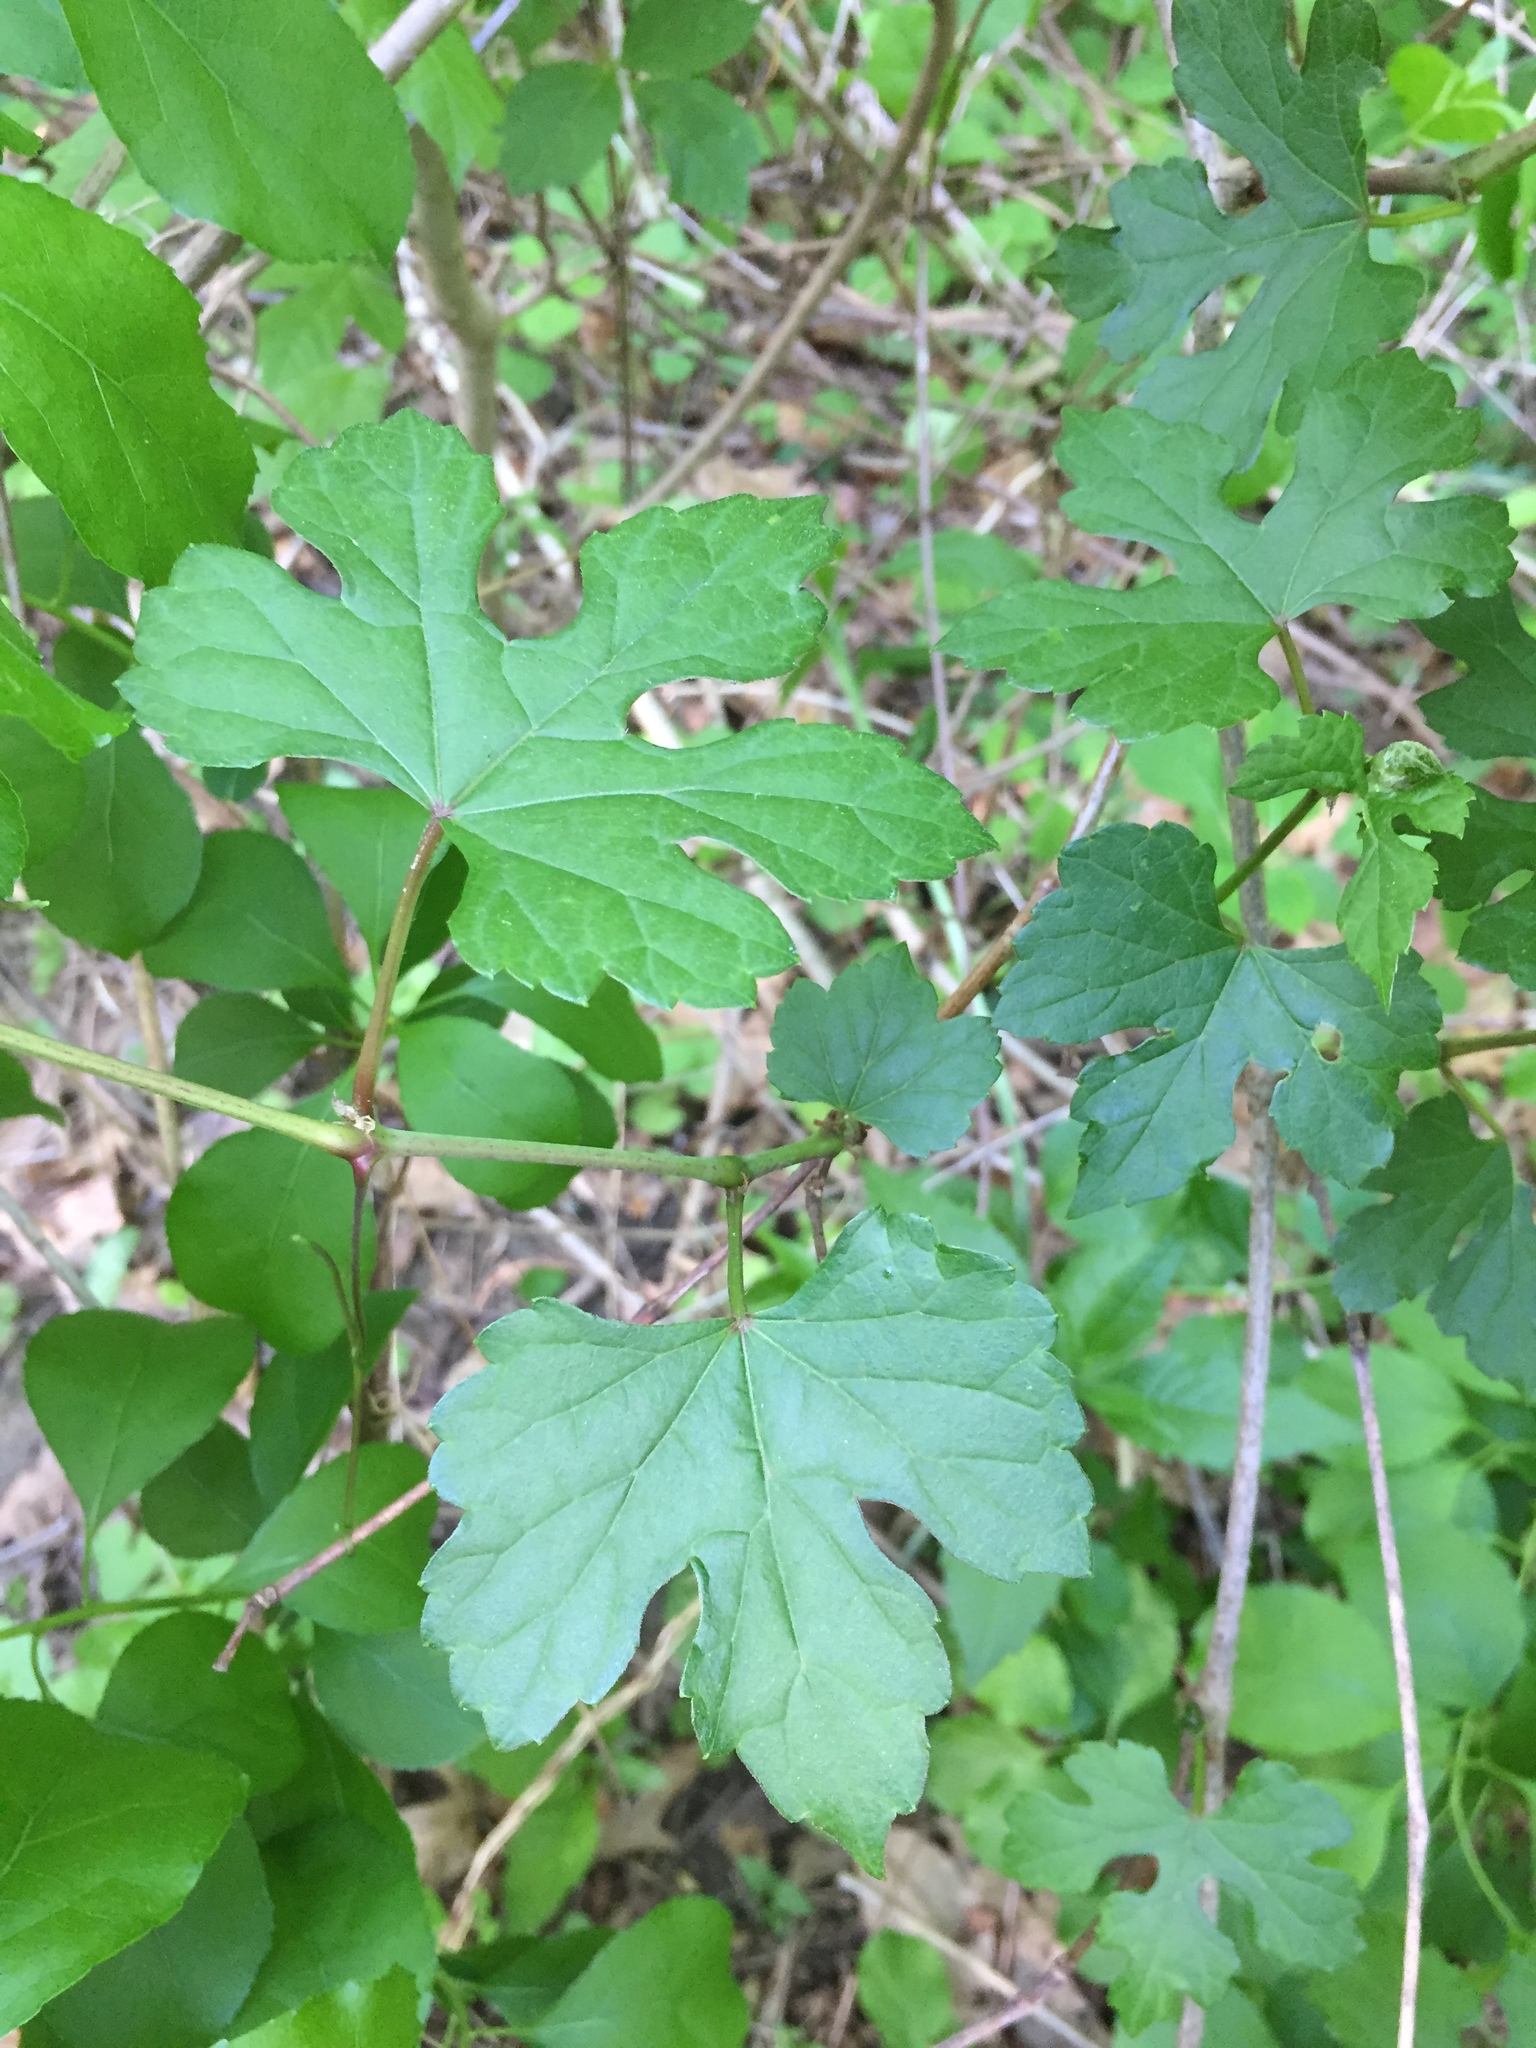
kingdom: Plantae
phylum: Tracheophyta
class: Magnoliopsida
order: Vitales
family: Vitaceae
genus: Ampelopsis
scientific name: Ampelopsis glandulosa
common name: Amur peppervine
